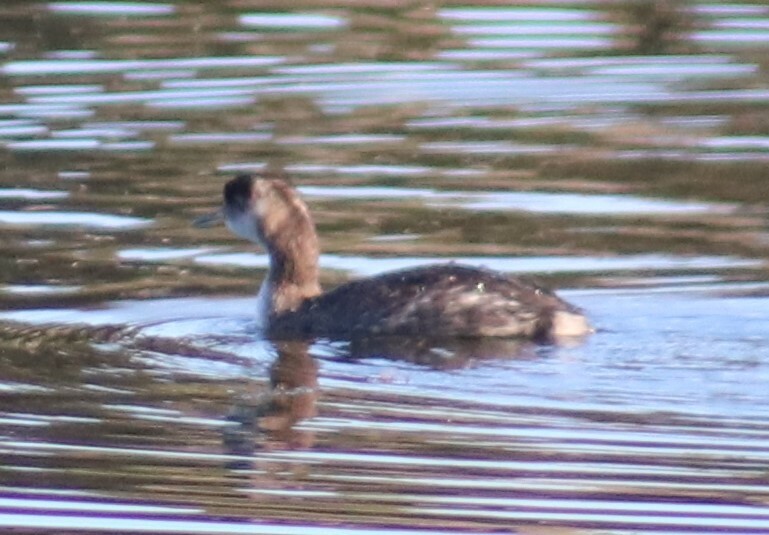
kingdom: Animalia
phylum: Chordata
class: Aves
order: Podicipediformes
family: Podicipedidae
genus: Podiceps
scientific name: Podiceps grisegena
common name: Red-necked grebe
